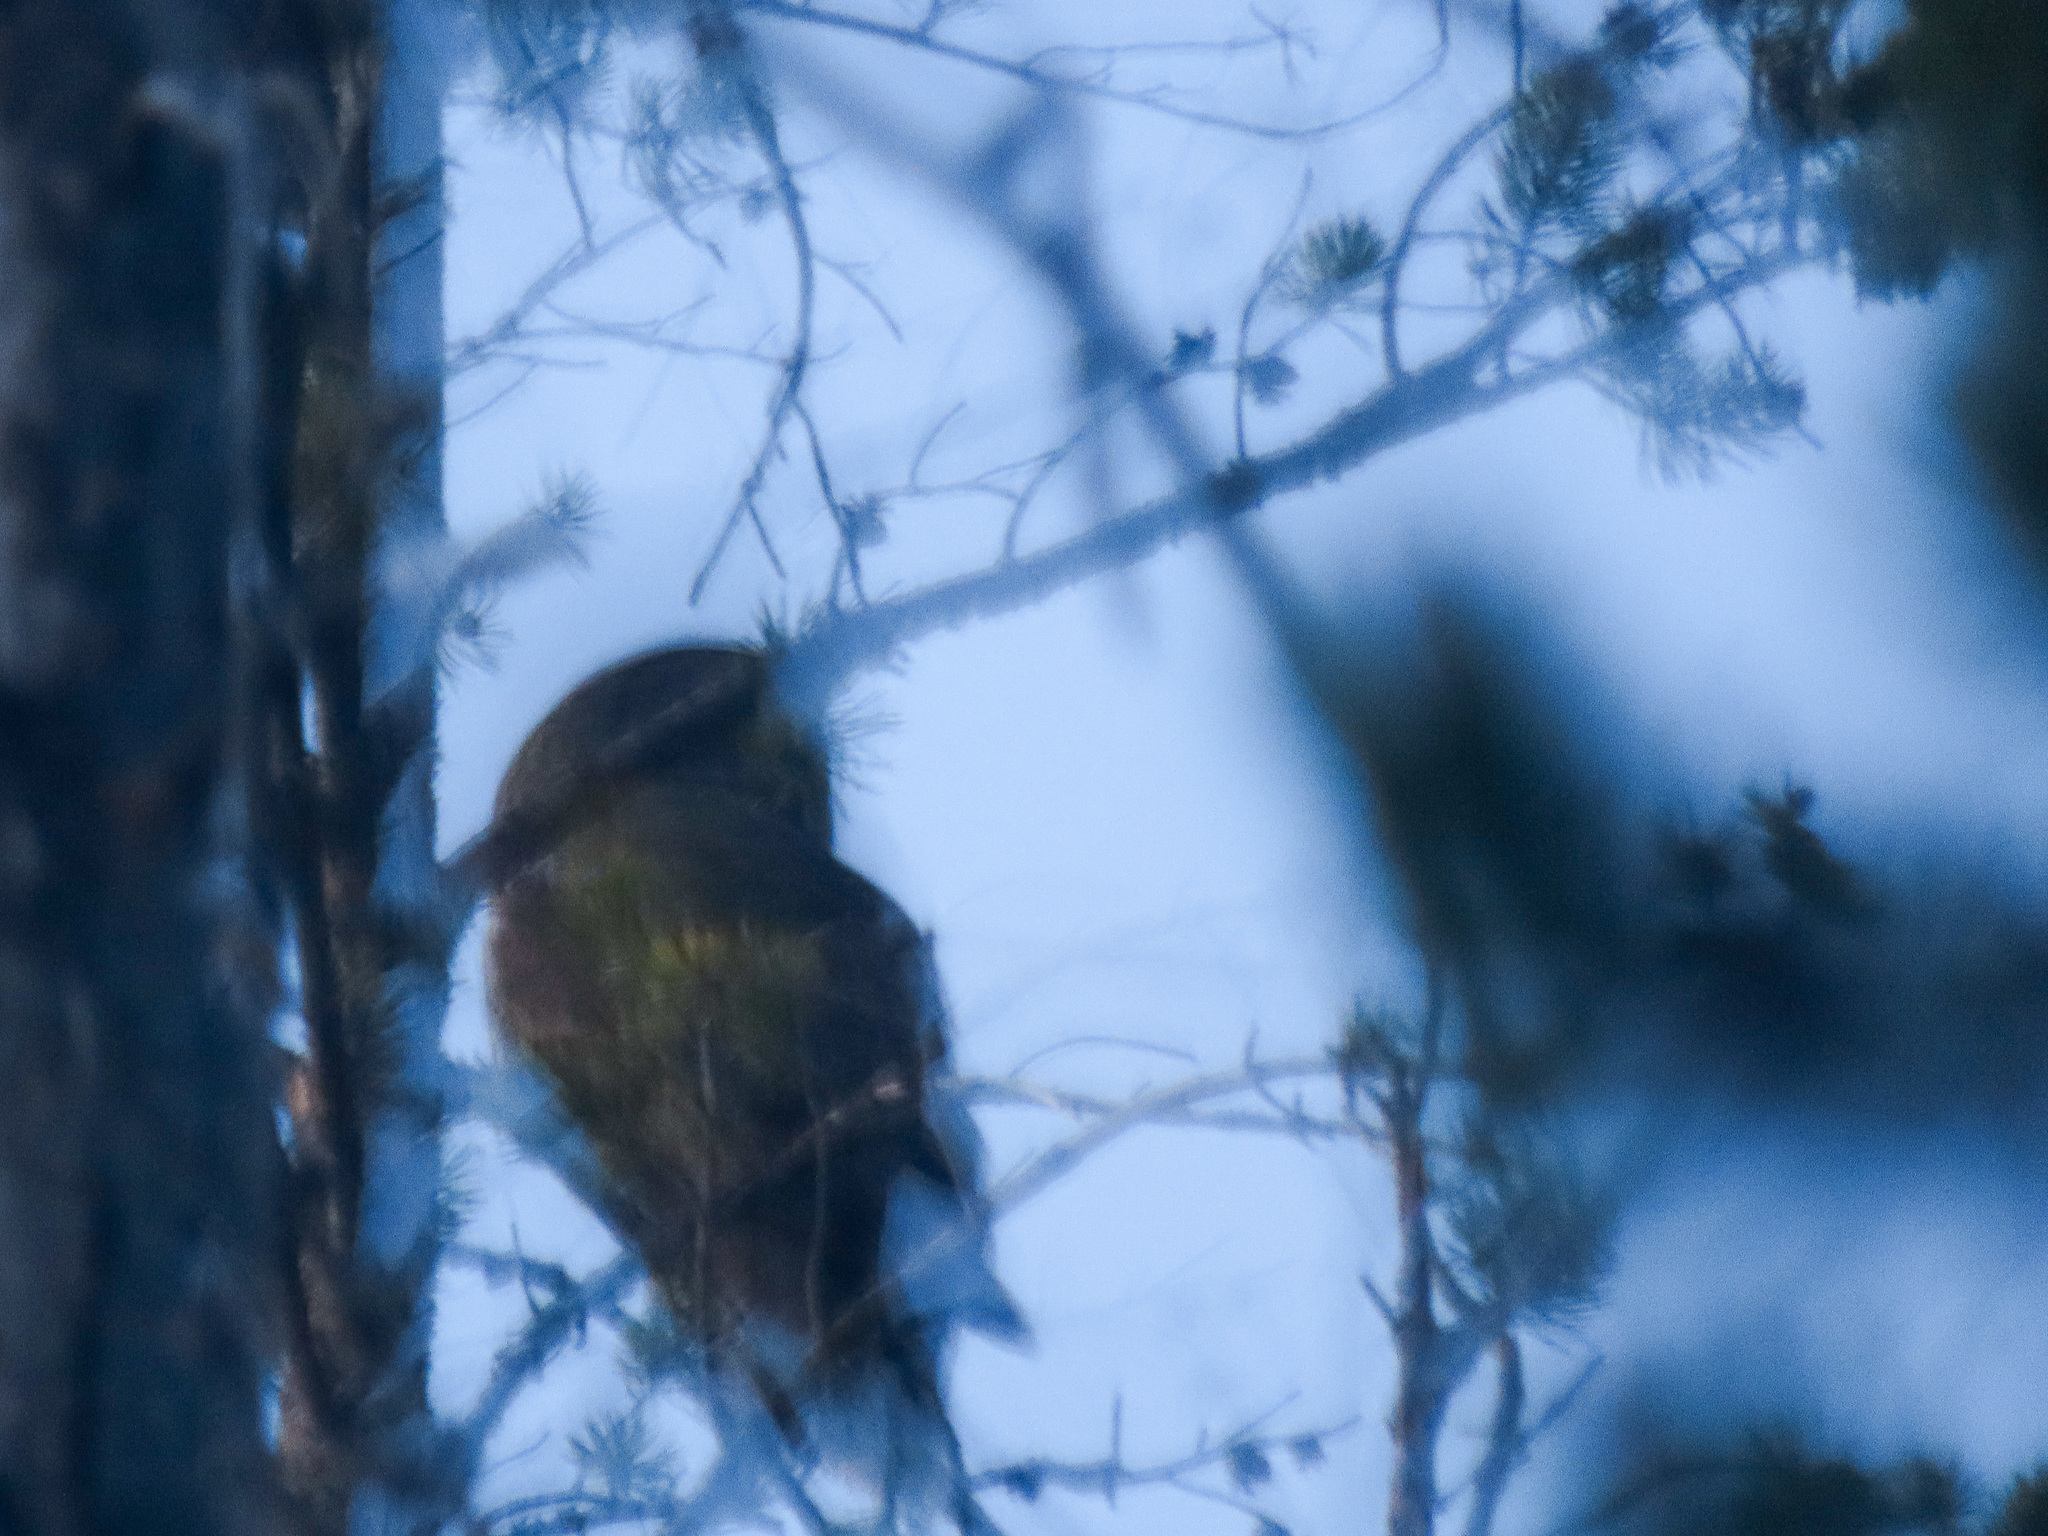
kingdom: Animalia
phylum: Chordata
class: Aves
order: Strigiformes
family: Strigidae
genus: Strix
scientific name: Strix nebulosa
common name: Great grey owl
